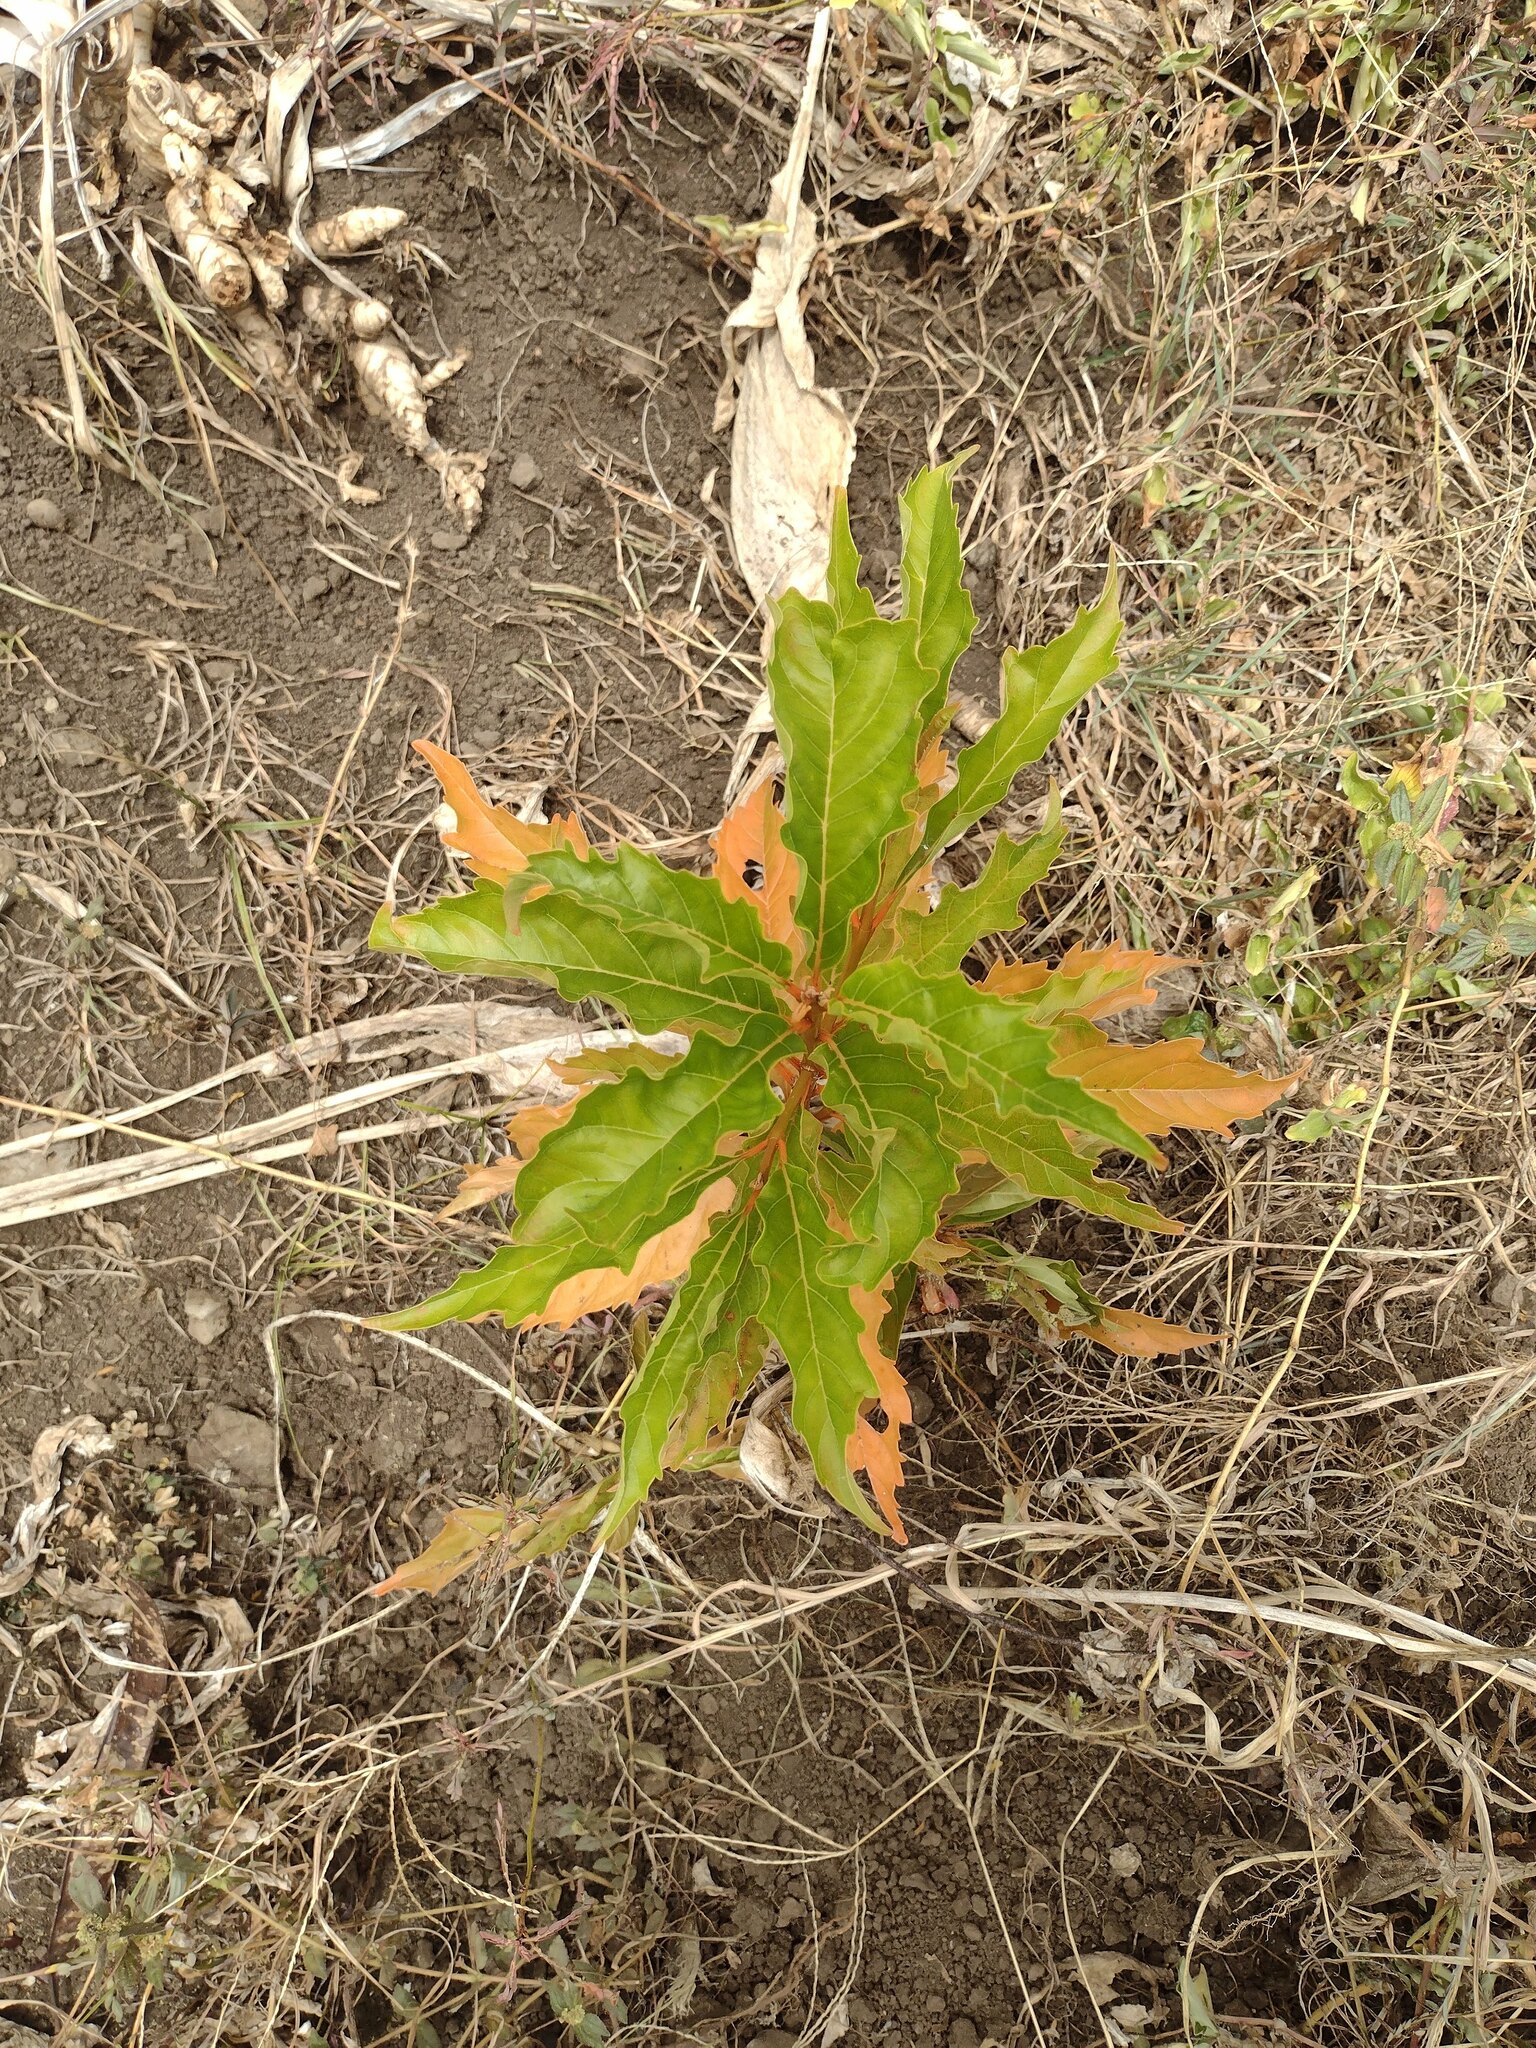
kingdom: Plantae
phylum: Tracheophyta
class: Magnoliopsida
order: Lamiales
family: Verbenaceae
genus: Citharexylum
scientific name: Citharexylum spinosum
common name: Fiddlewood
